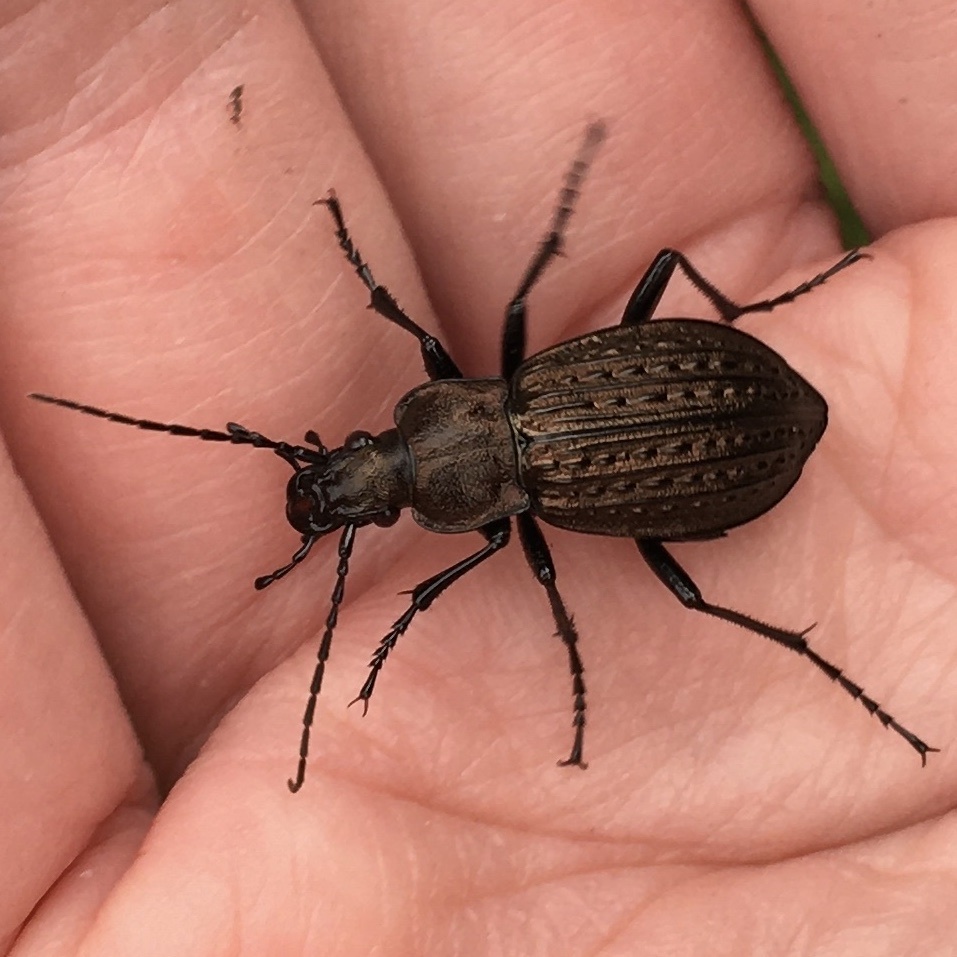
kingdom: Animalia
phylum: Arthropoda
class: Insecta
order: Coleoptera
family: Carabidae
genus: Carabus
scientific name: Carabus granulatus
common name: Granulate ground beetle
